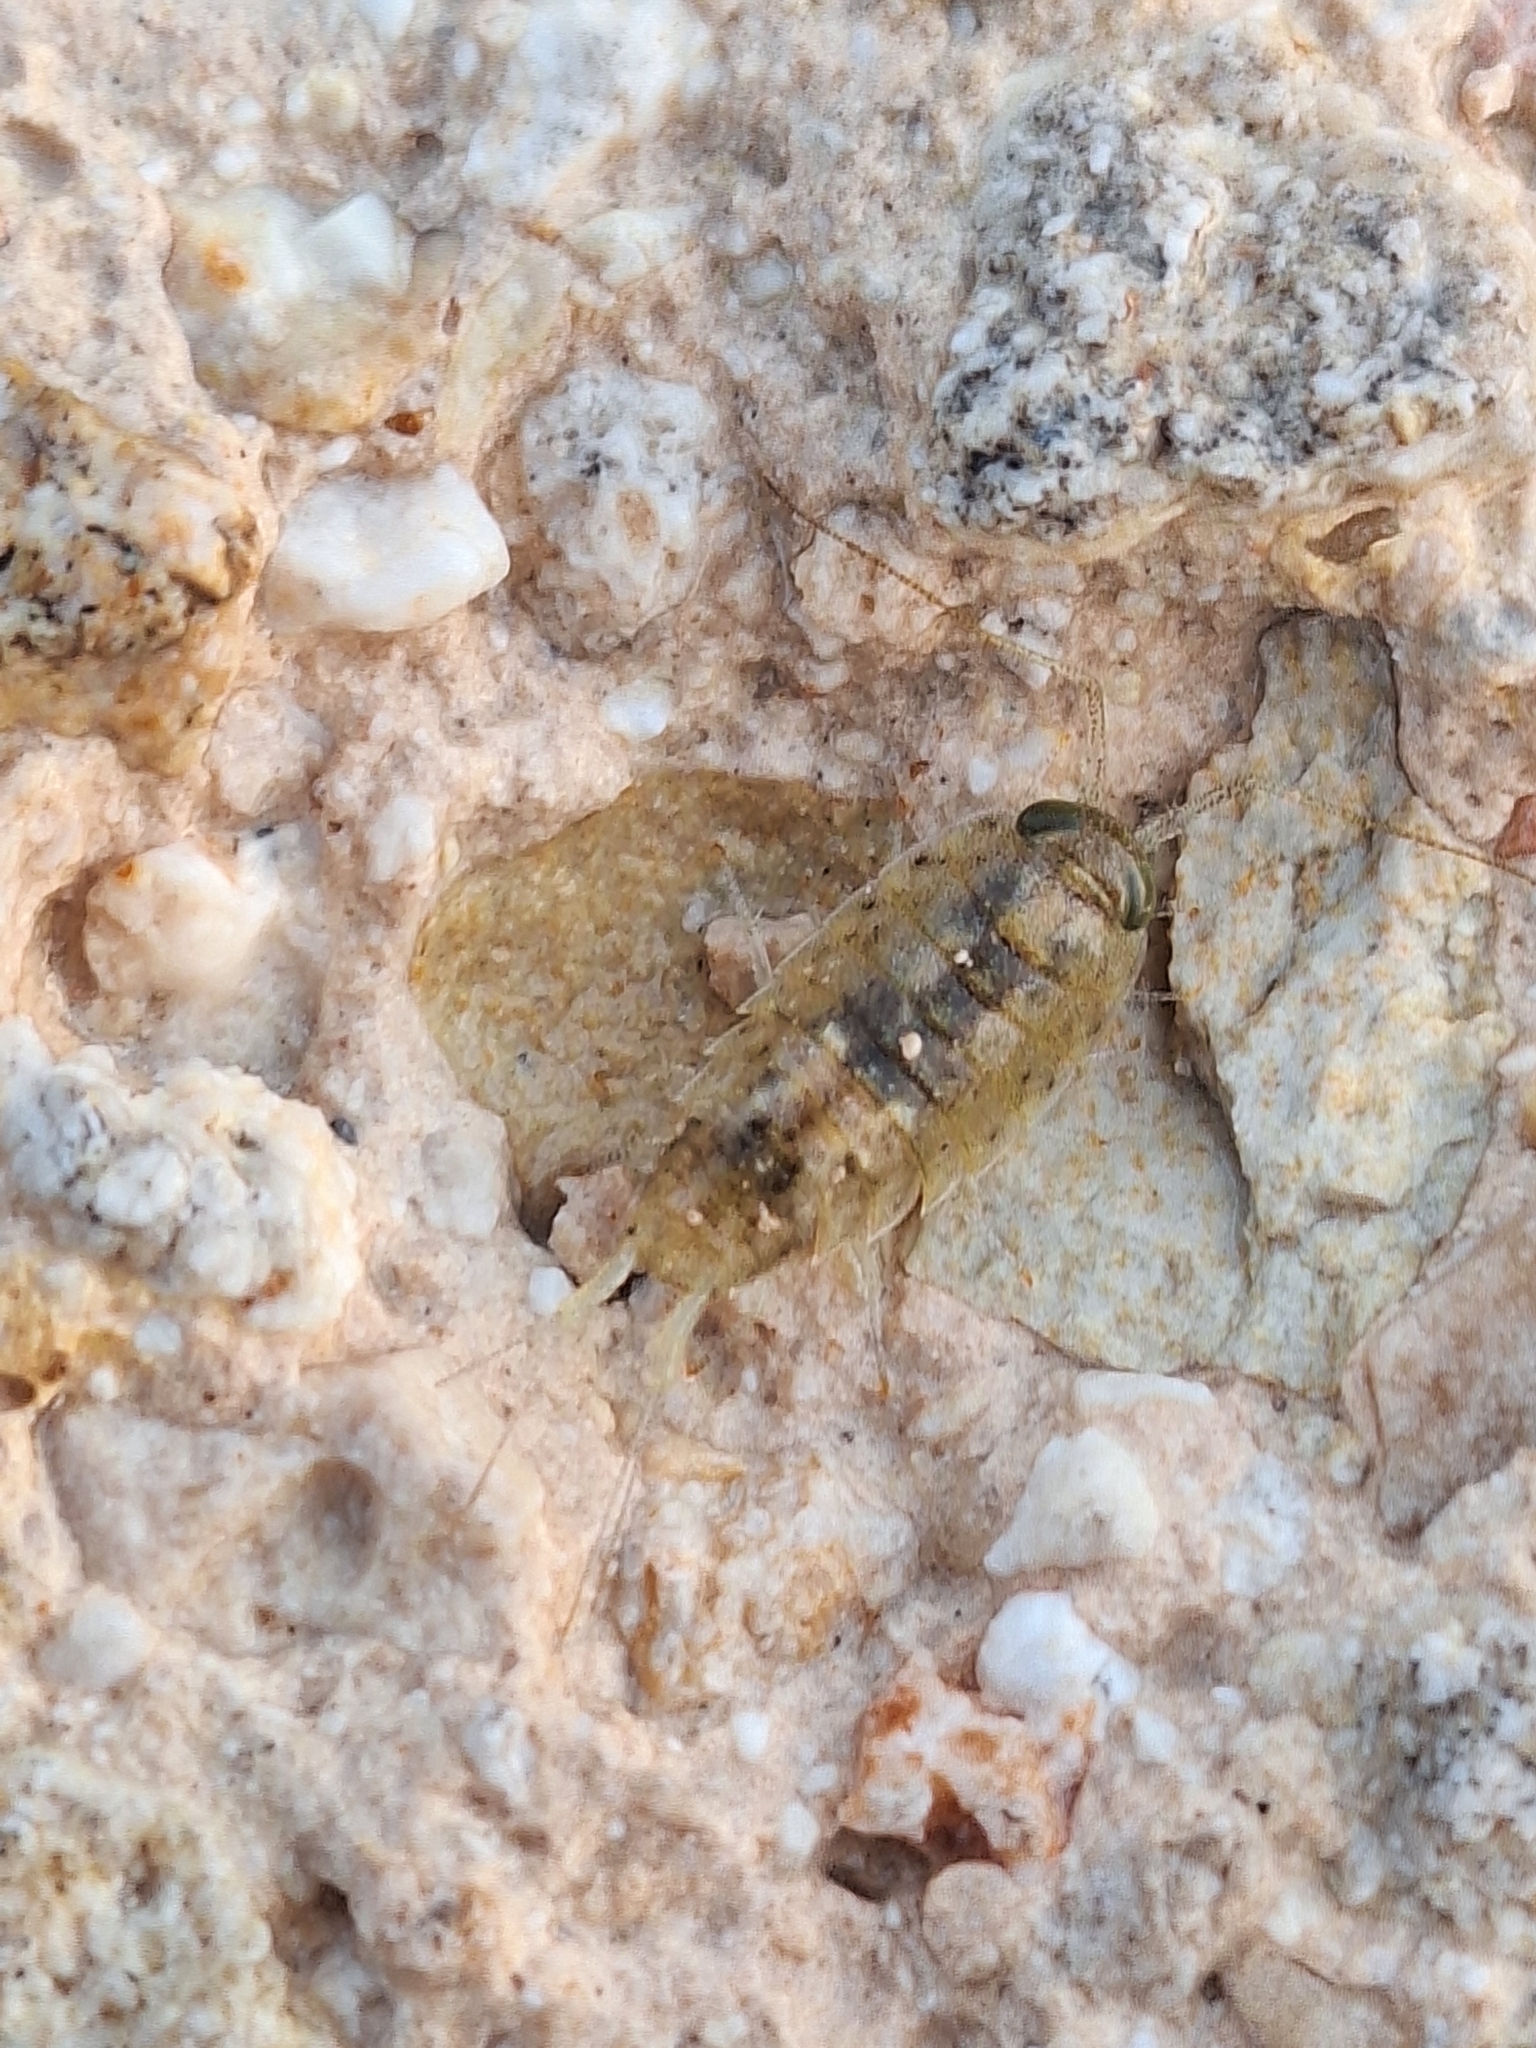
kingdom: Animalia
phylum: Arthropoda
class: Malacostraca
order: Isopoda
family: Ligiidae
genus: Ligia
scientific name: Ligia italica
